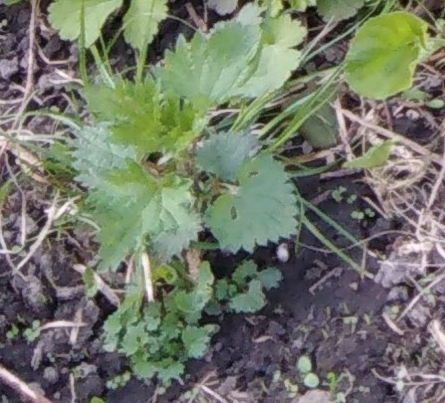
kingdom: Plantae
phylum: Tracheophyta
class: Magnoliopsida
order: Rosales
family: Urticaceae
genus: Urtica
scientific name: Urtica dioica
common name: Common nettle
